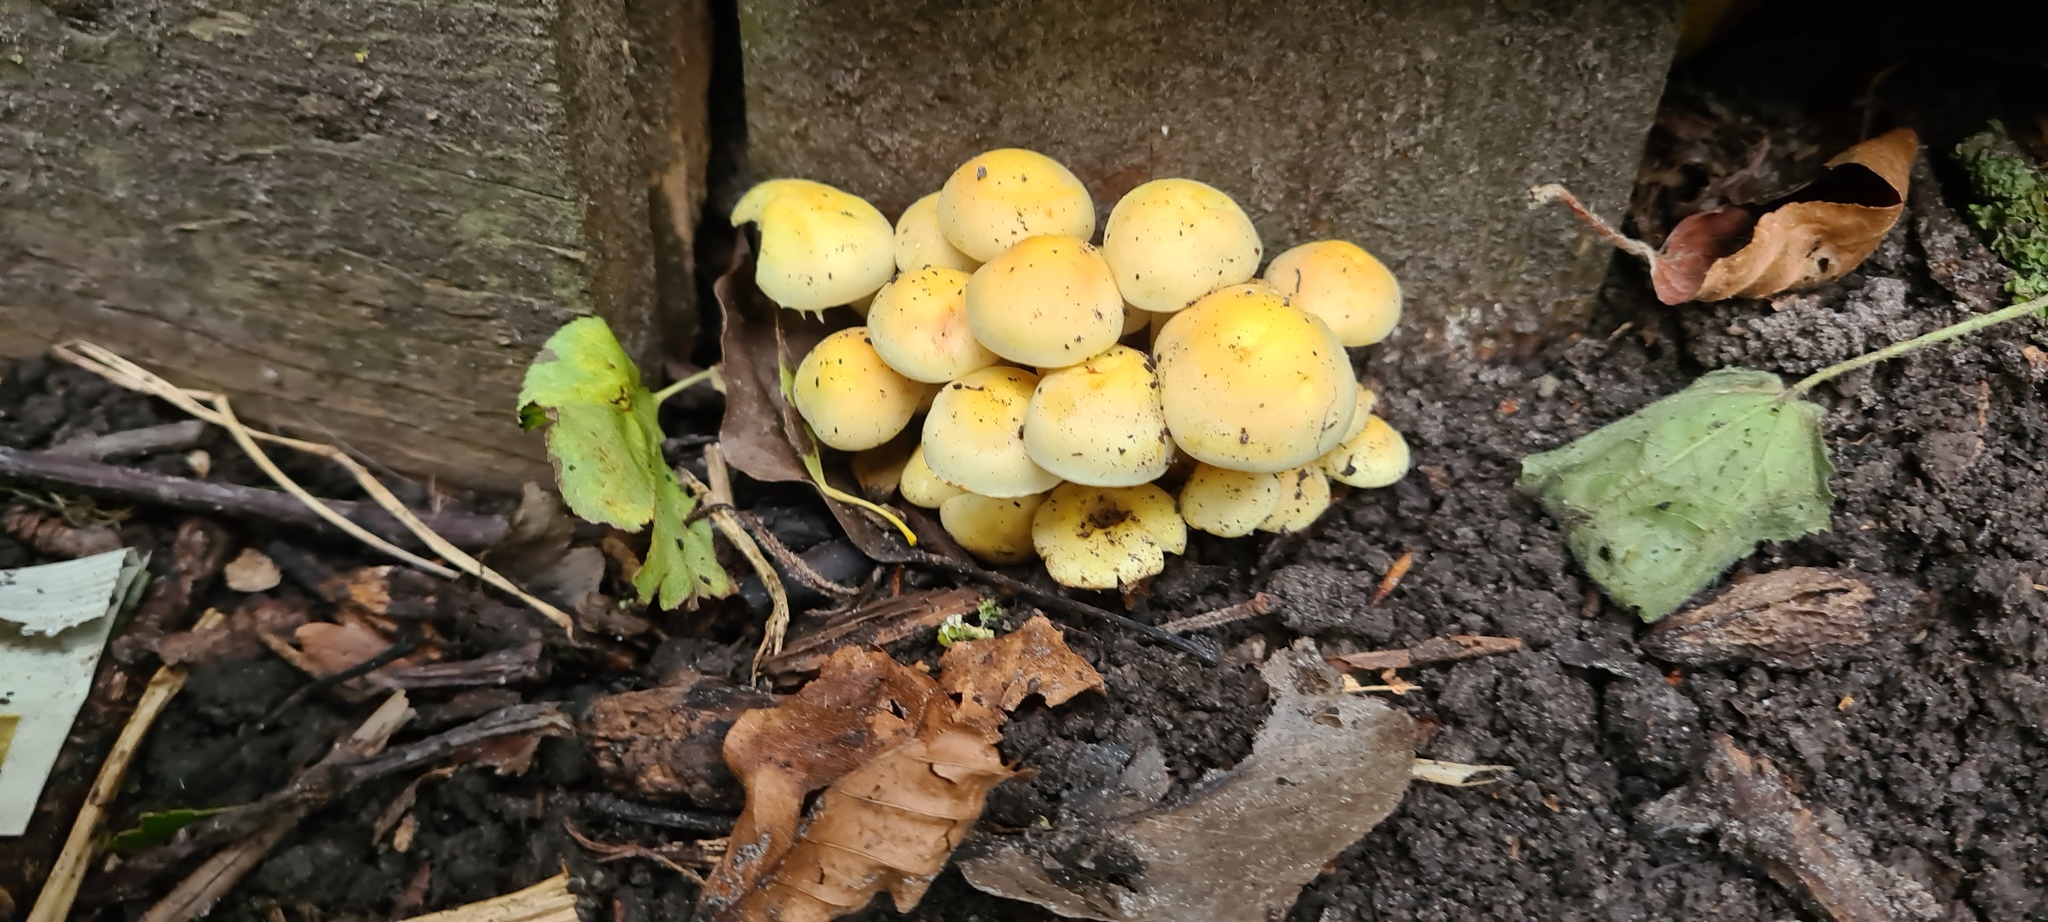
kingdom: Fungi
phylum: Basidiomycota
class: Agaricomycetes
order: Agaricales
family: Strophariaceae
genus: Hypholoma
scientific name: Hypholoma fasciculare
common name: Sulphur tuft
